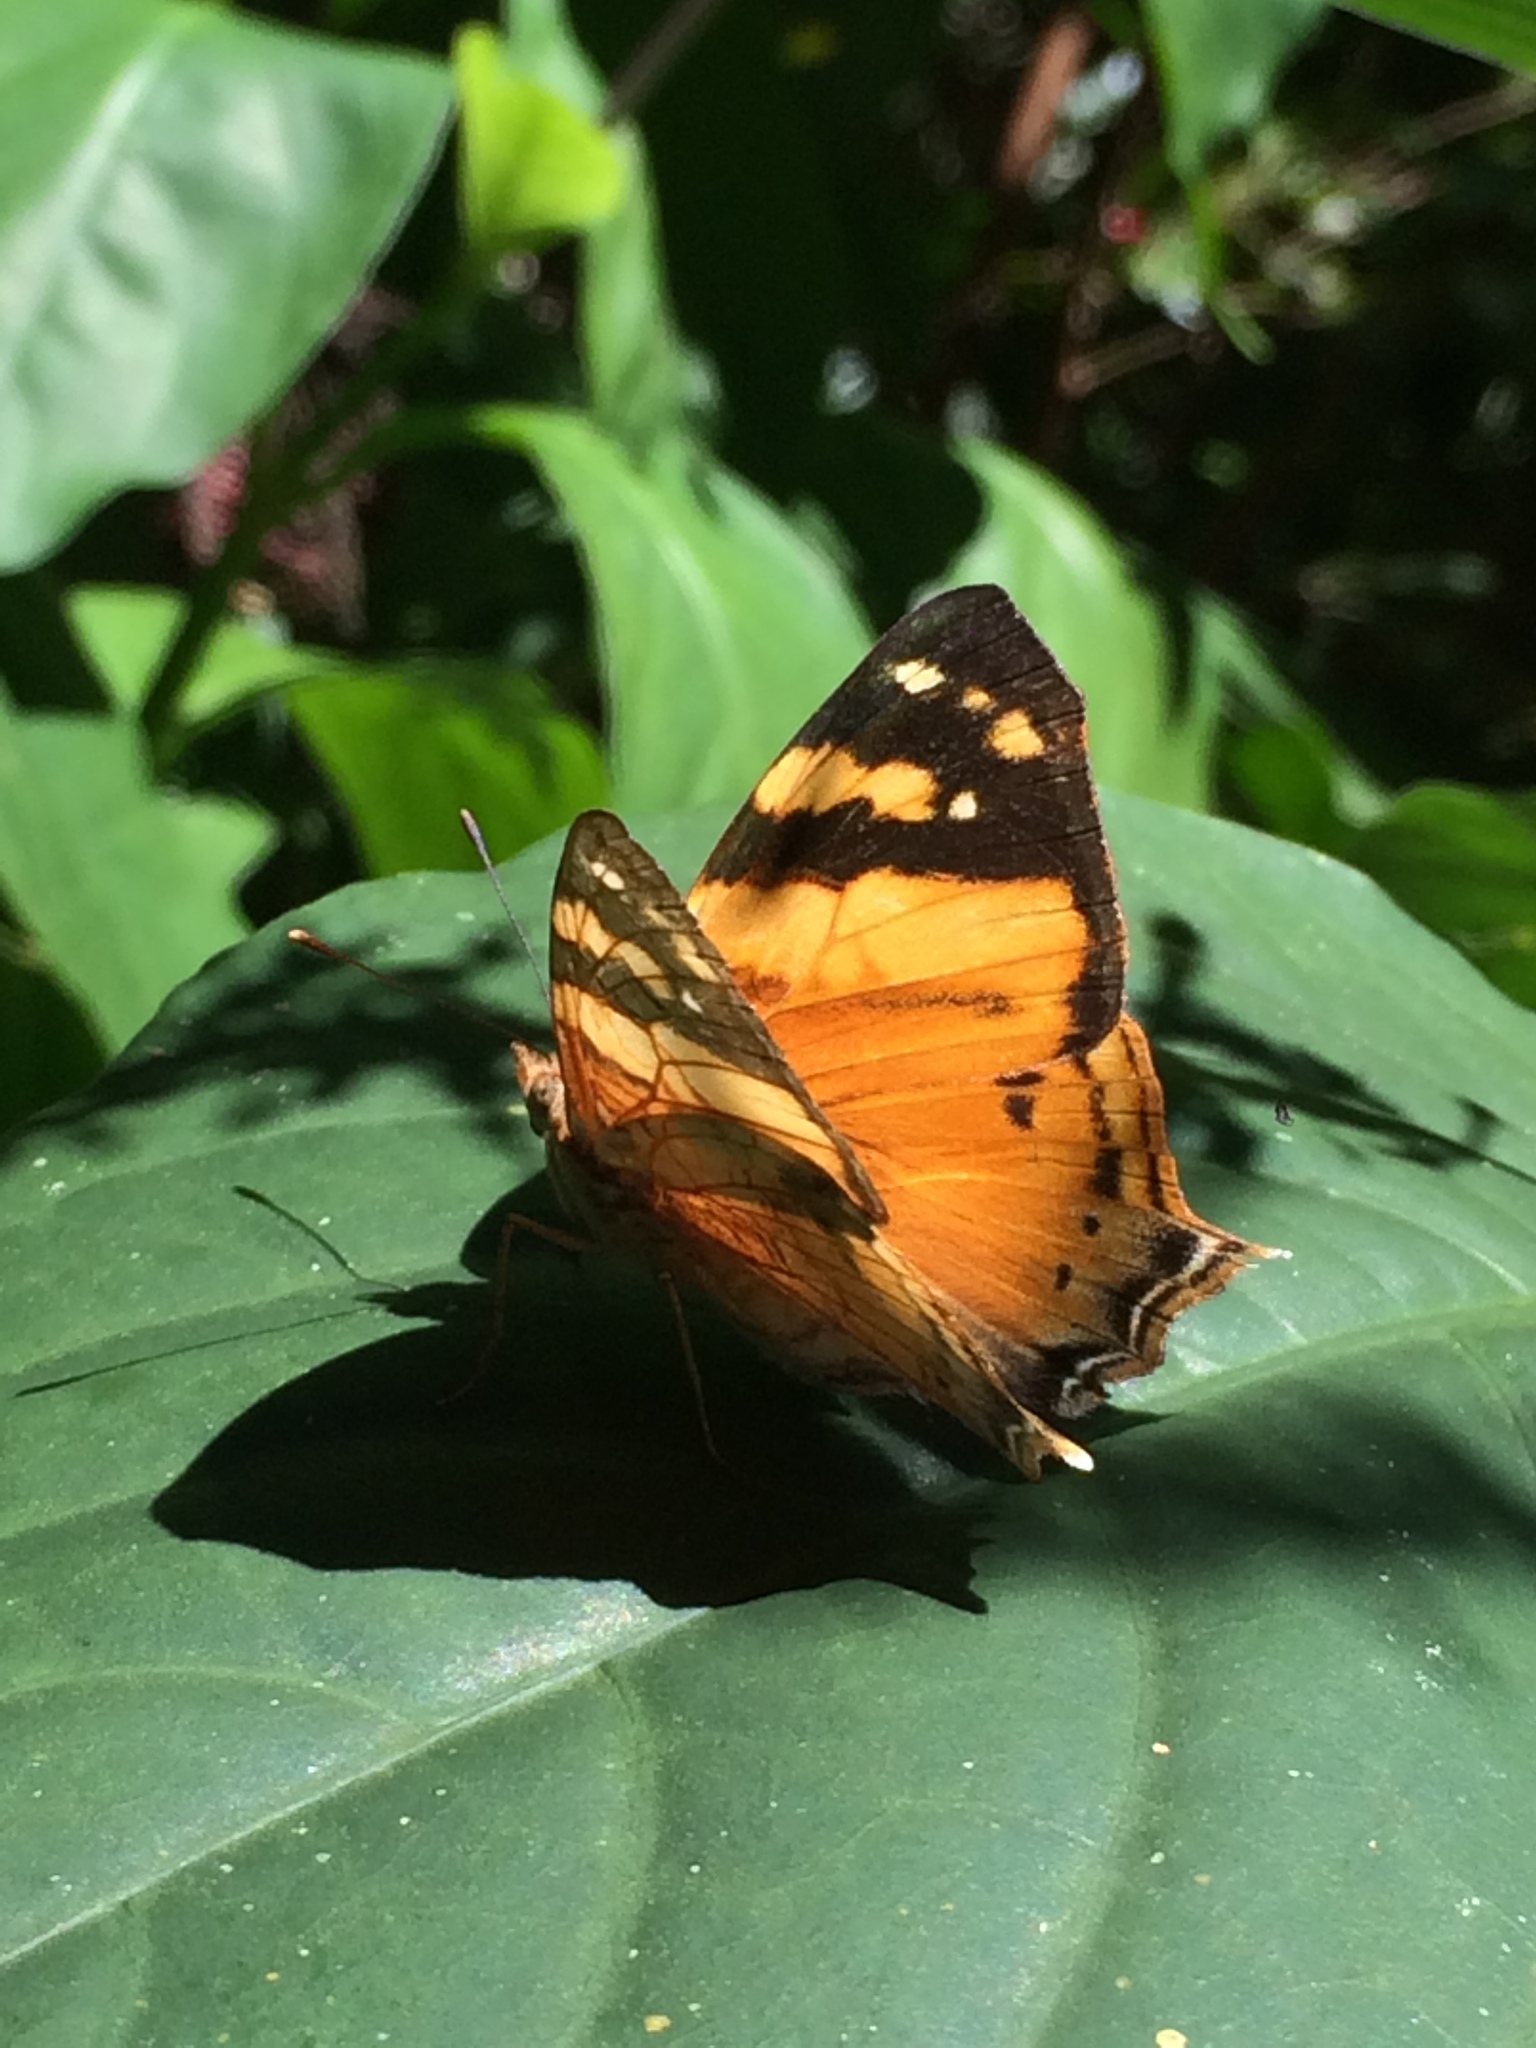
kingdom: Animalia
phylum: Arthropoda
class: Insecta
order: Lepidoptera
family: Nymphalidae
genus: Hypanartia
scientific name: Hypanartia lethe
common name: Orange mapwing
